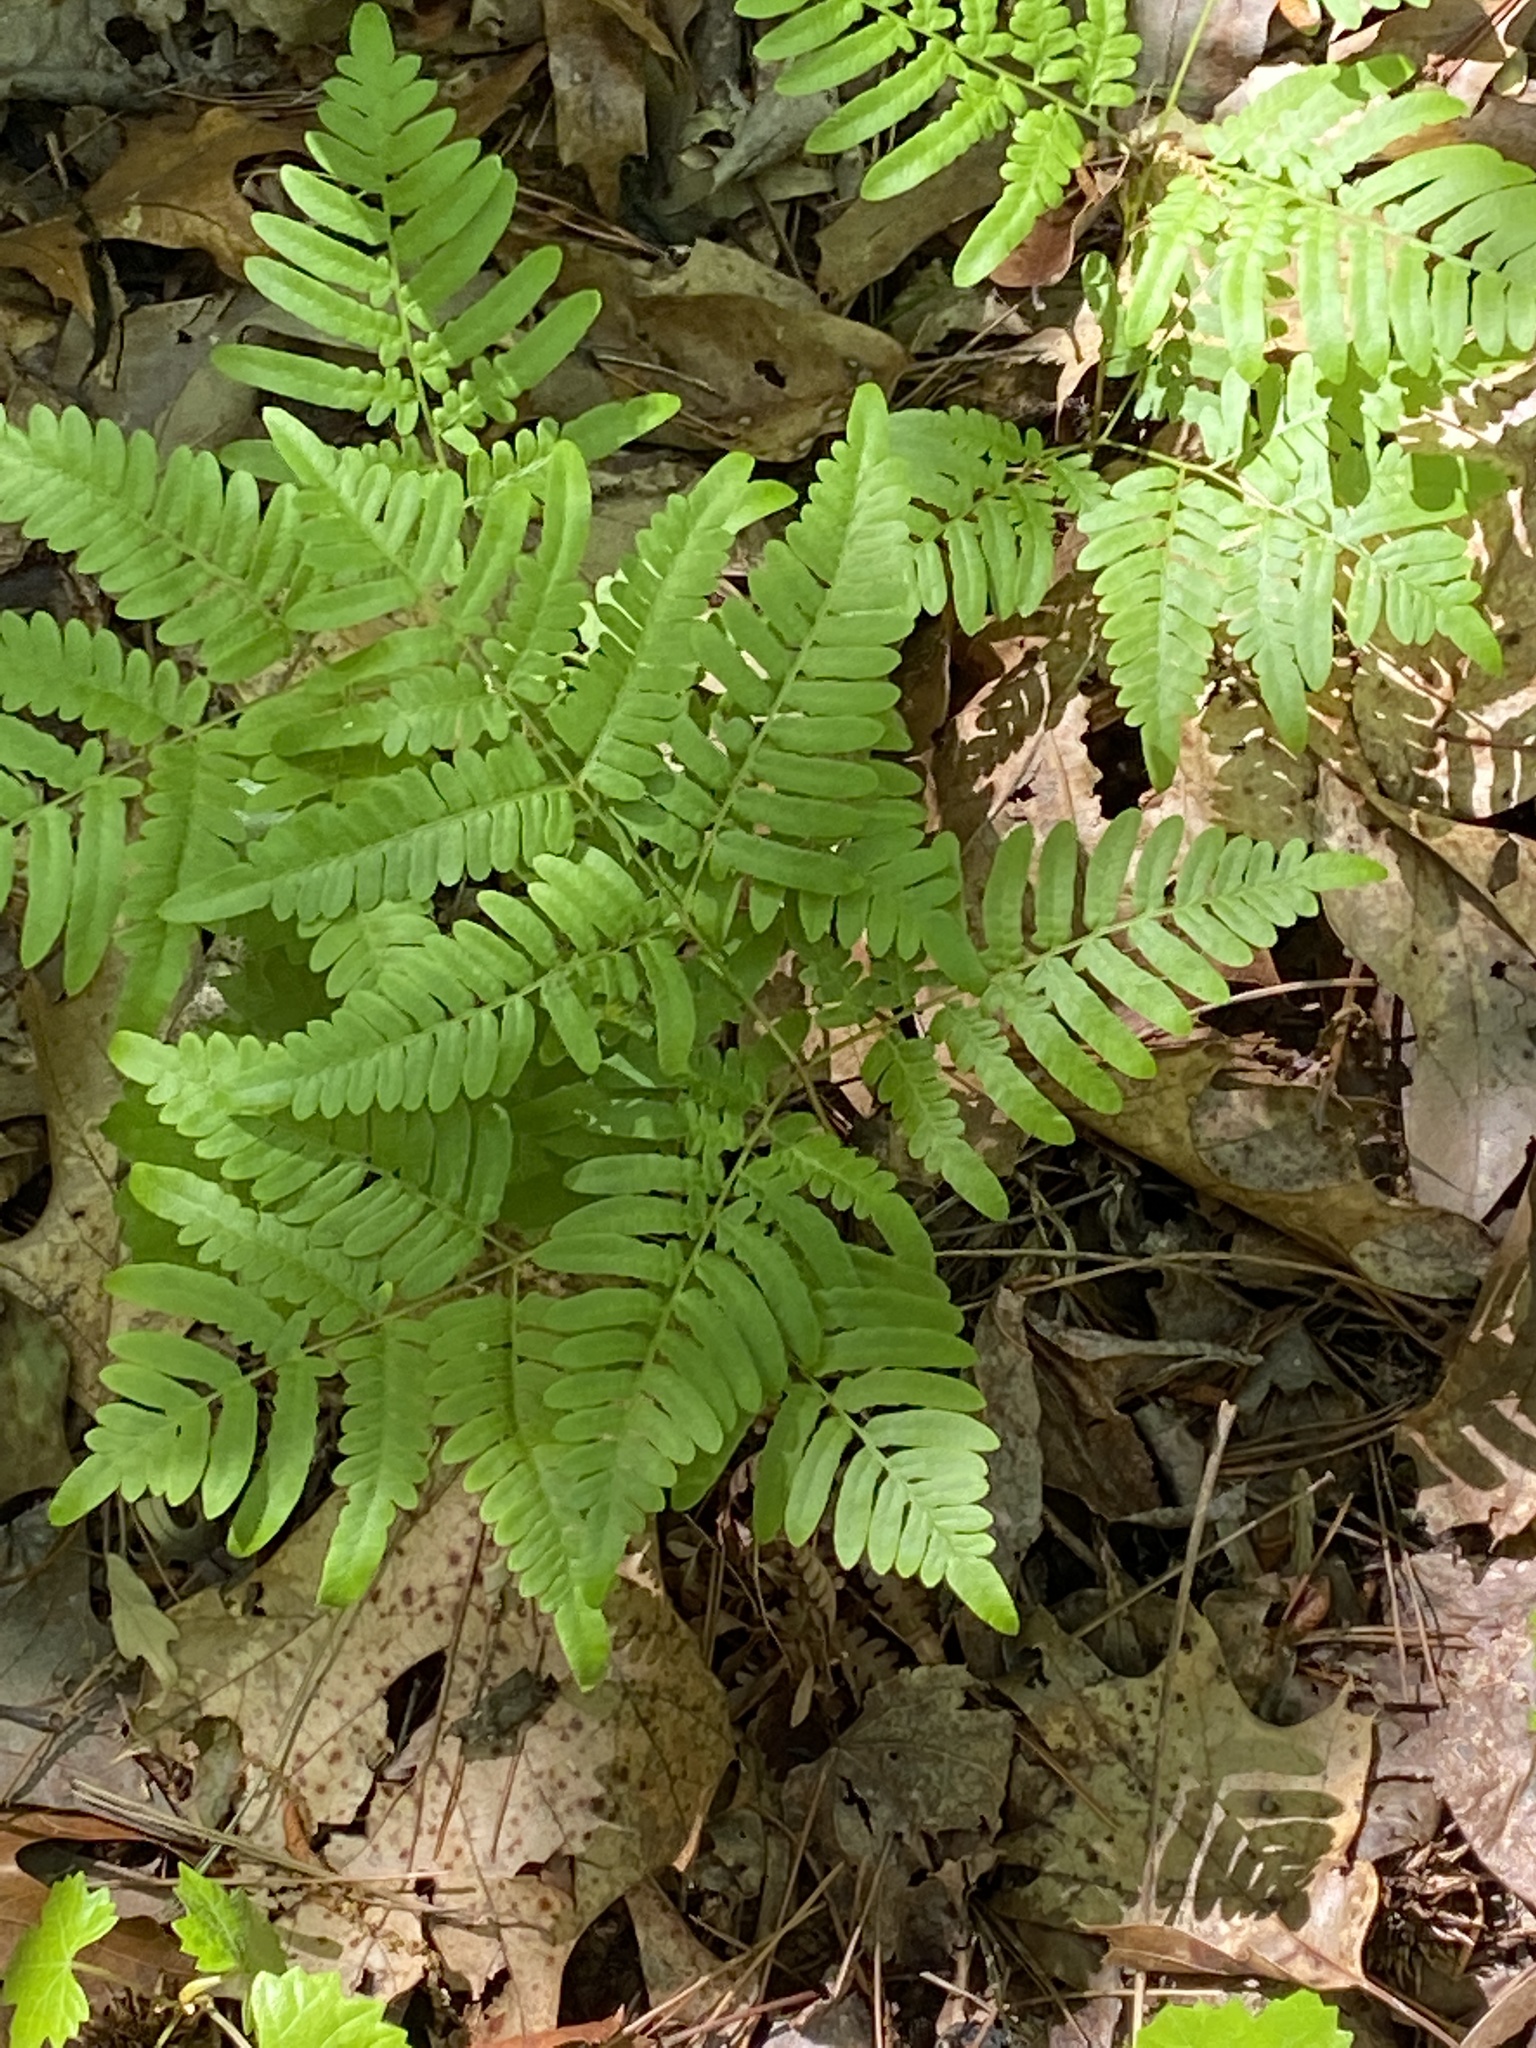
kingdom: Plantae
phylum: Tracheophyta
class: Polypodiopsida
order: Polypodiales
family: Dennstaedtiaceae
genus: Pteridium
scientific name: Pteridium aquilinum
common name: Bracken
